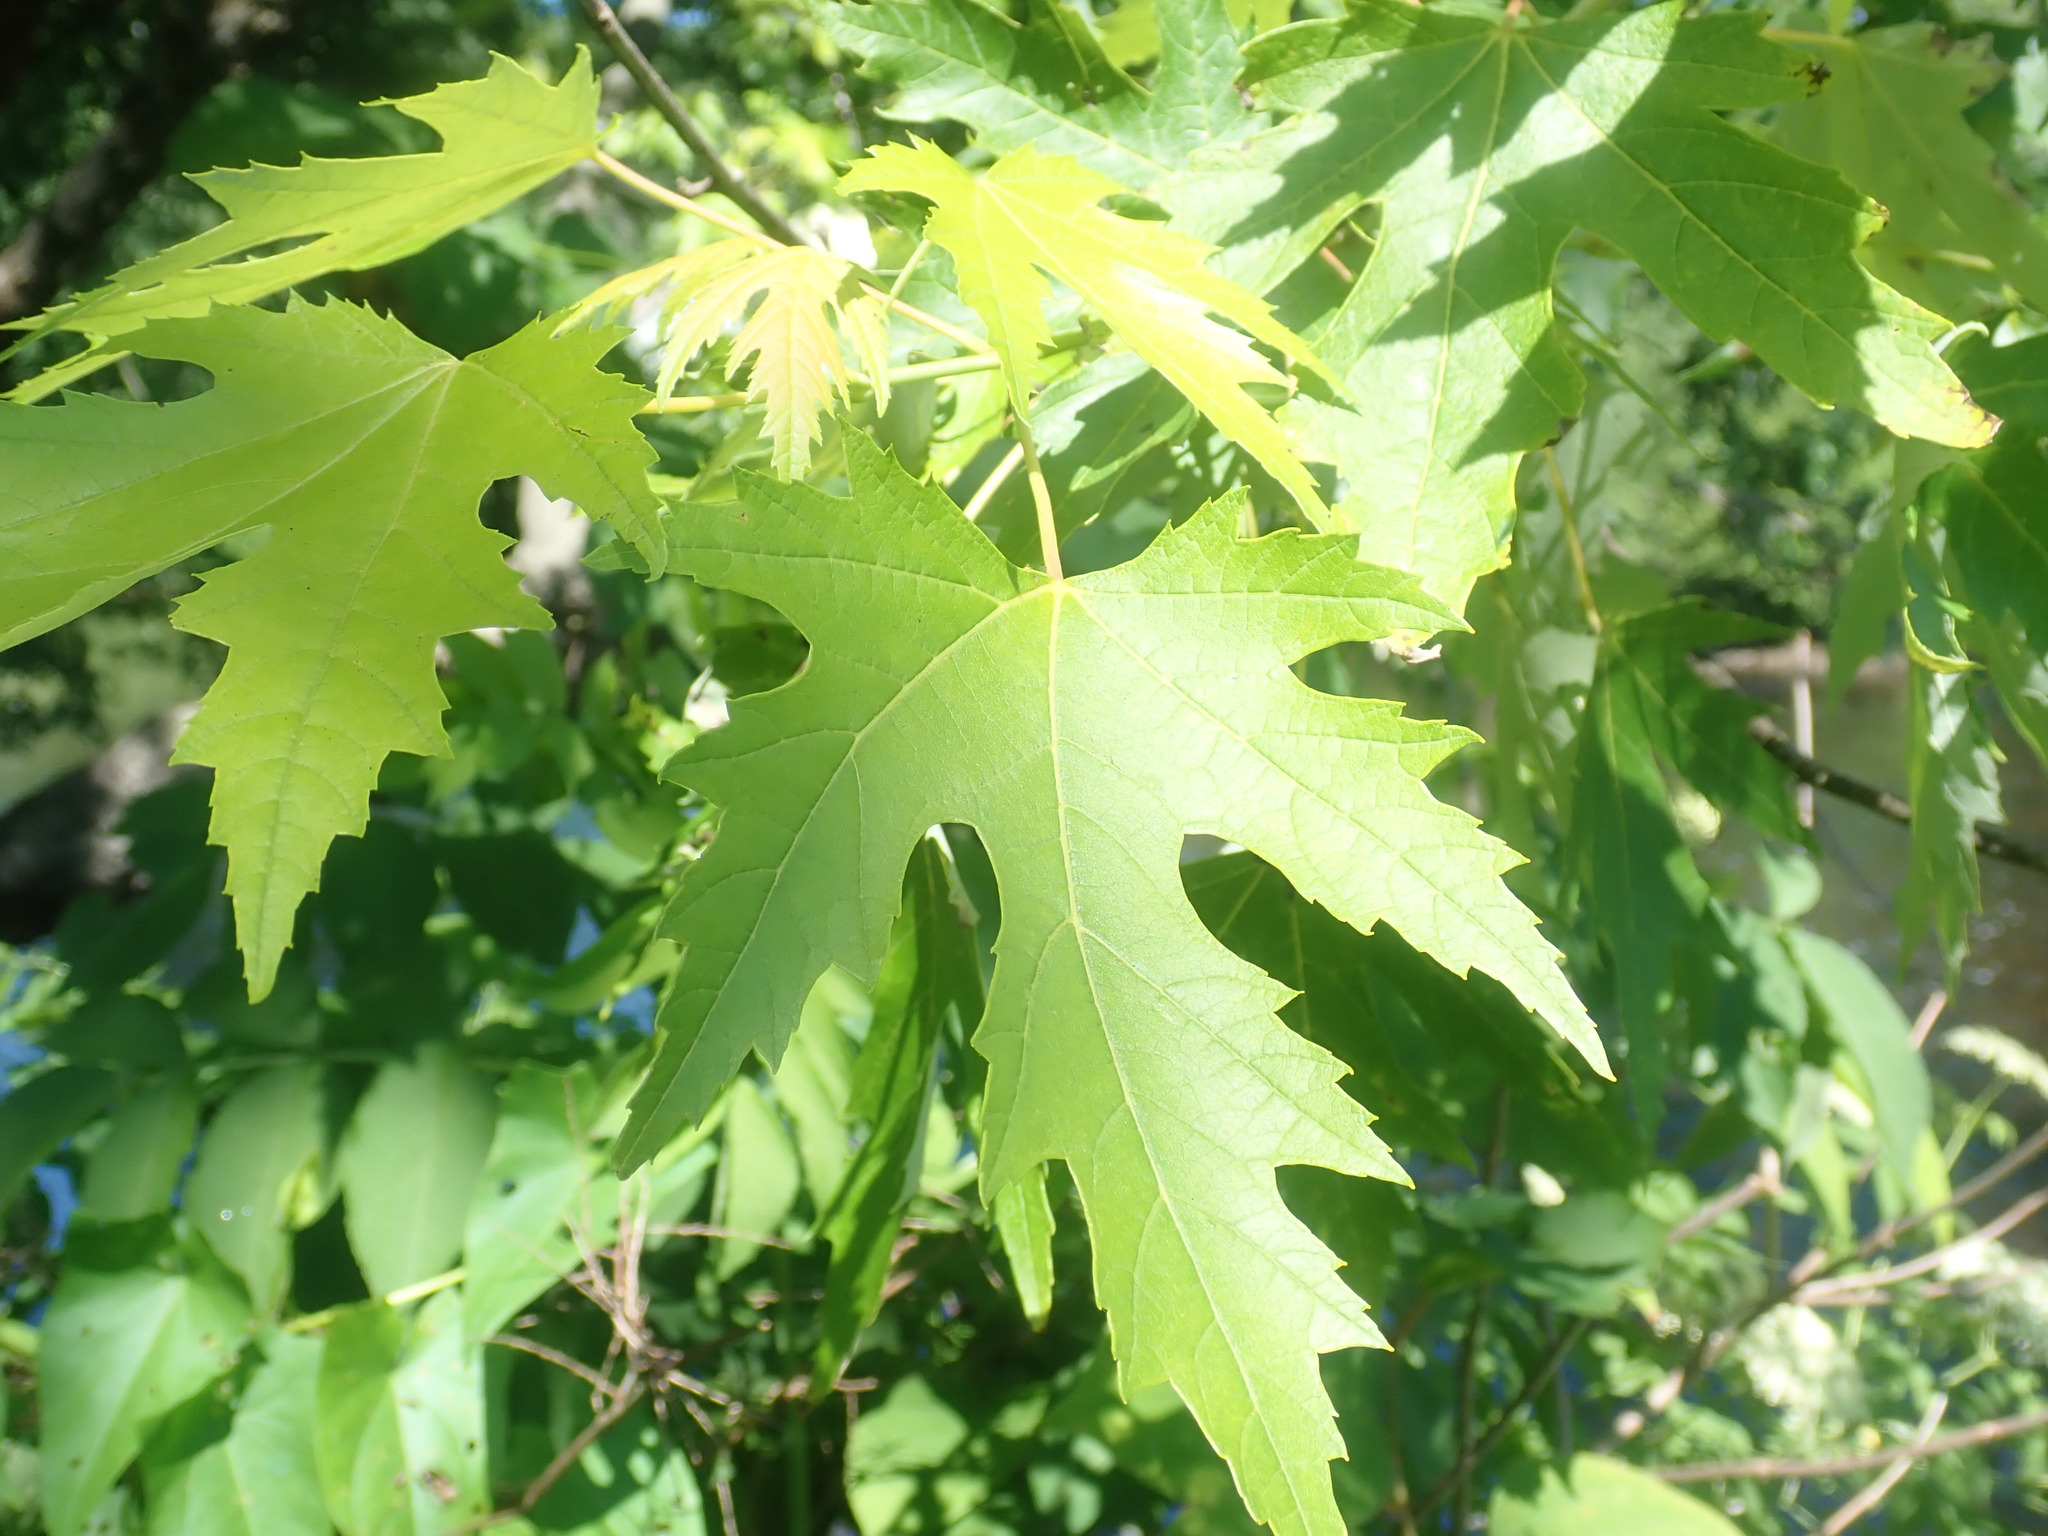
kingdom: Plantae
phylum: Tracheophyta
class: Magnoliopsida
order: Sapindales
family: Sapindaceae
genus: Acer
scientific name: Acer saccharinum
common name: Silver maple
